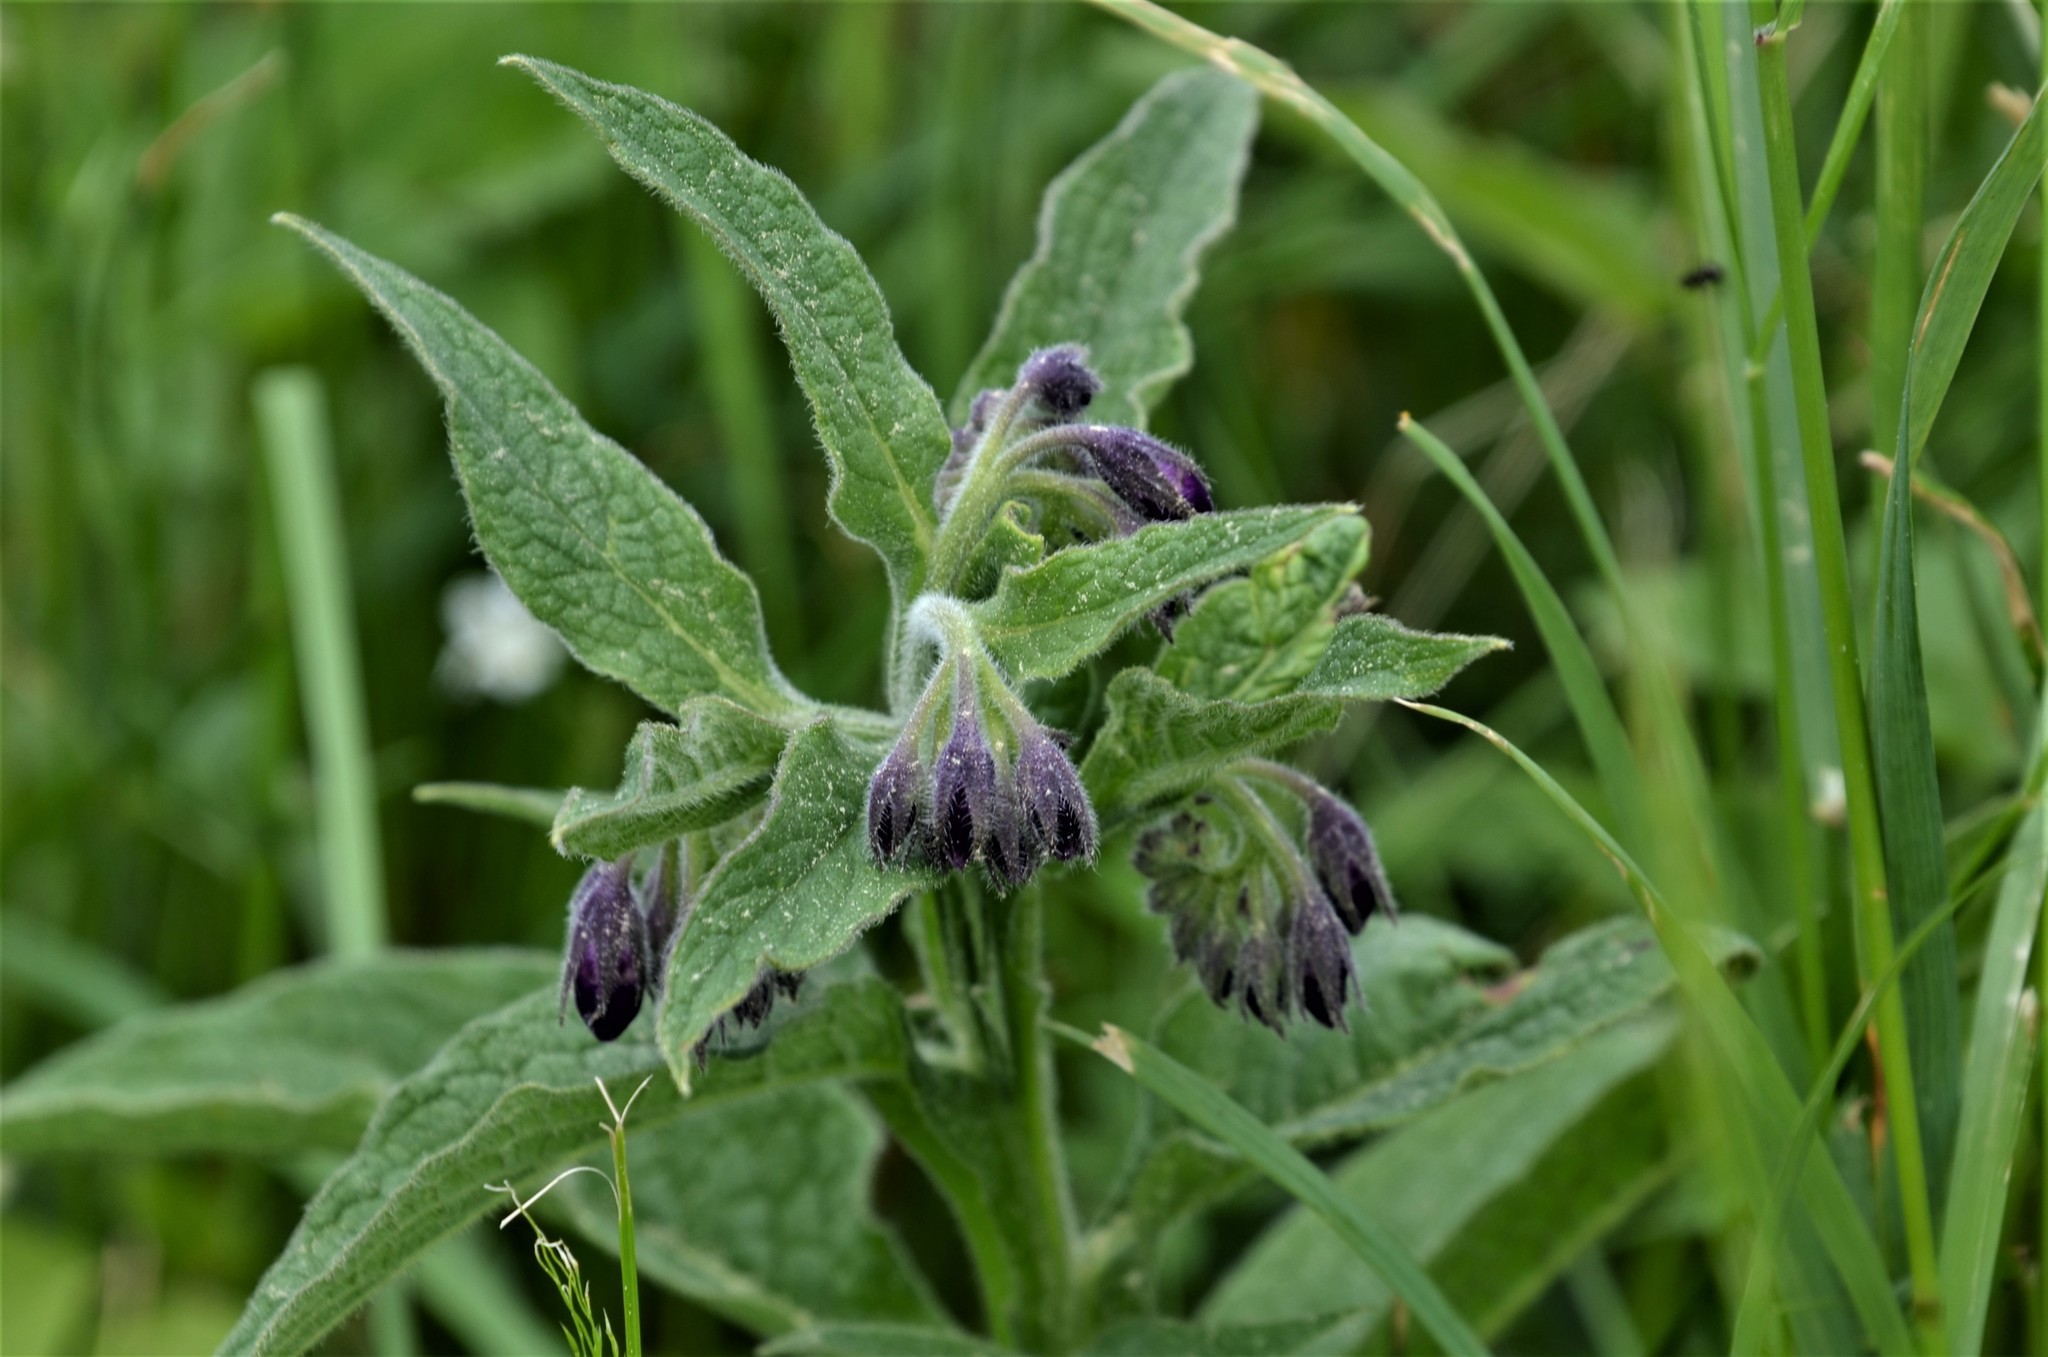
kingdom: Plantae
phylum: Tracheophyta
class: Magnoliopsida
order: Boraginales
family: Boraginaceae
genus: Symphytum
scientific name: Symphytum officinale
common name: Common comfrey
